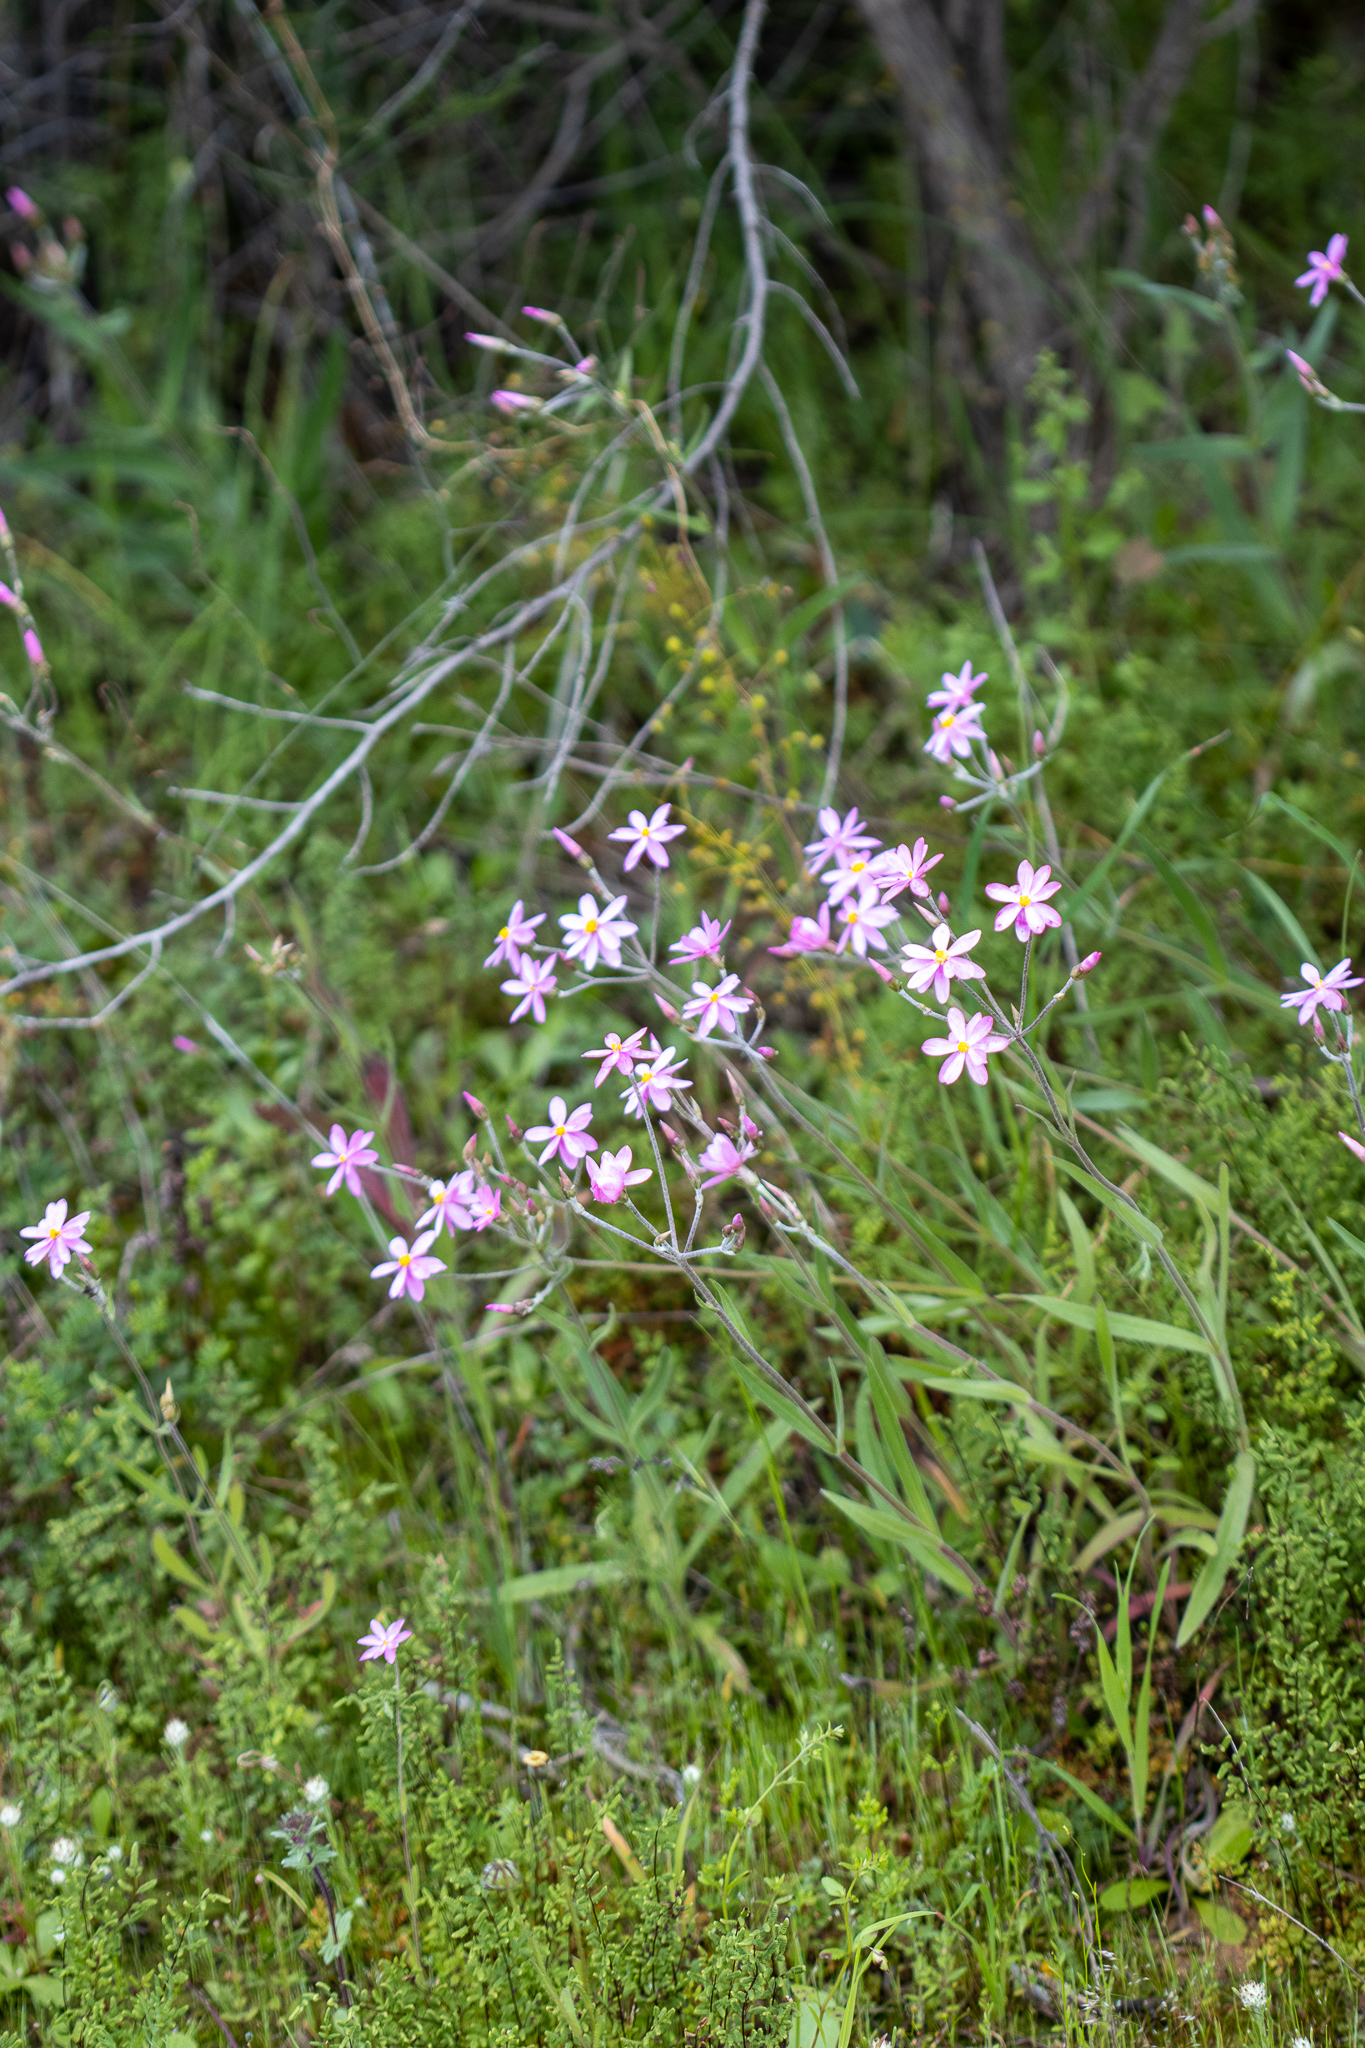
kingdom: Plantae
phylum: Tracheophyta
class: Magnoliopsida
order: Asterales
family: Asteraceae
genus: Schoenia
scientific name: Schoenia cassiniana
